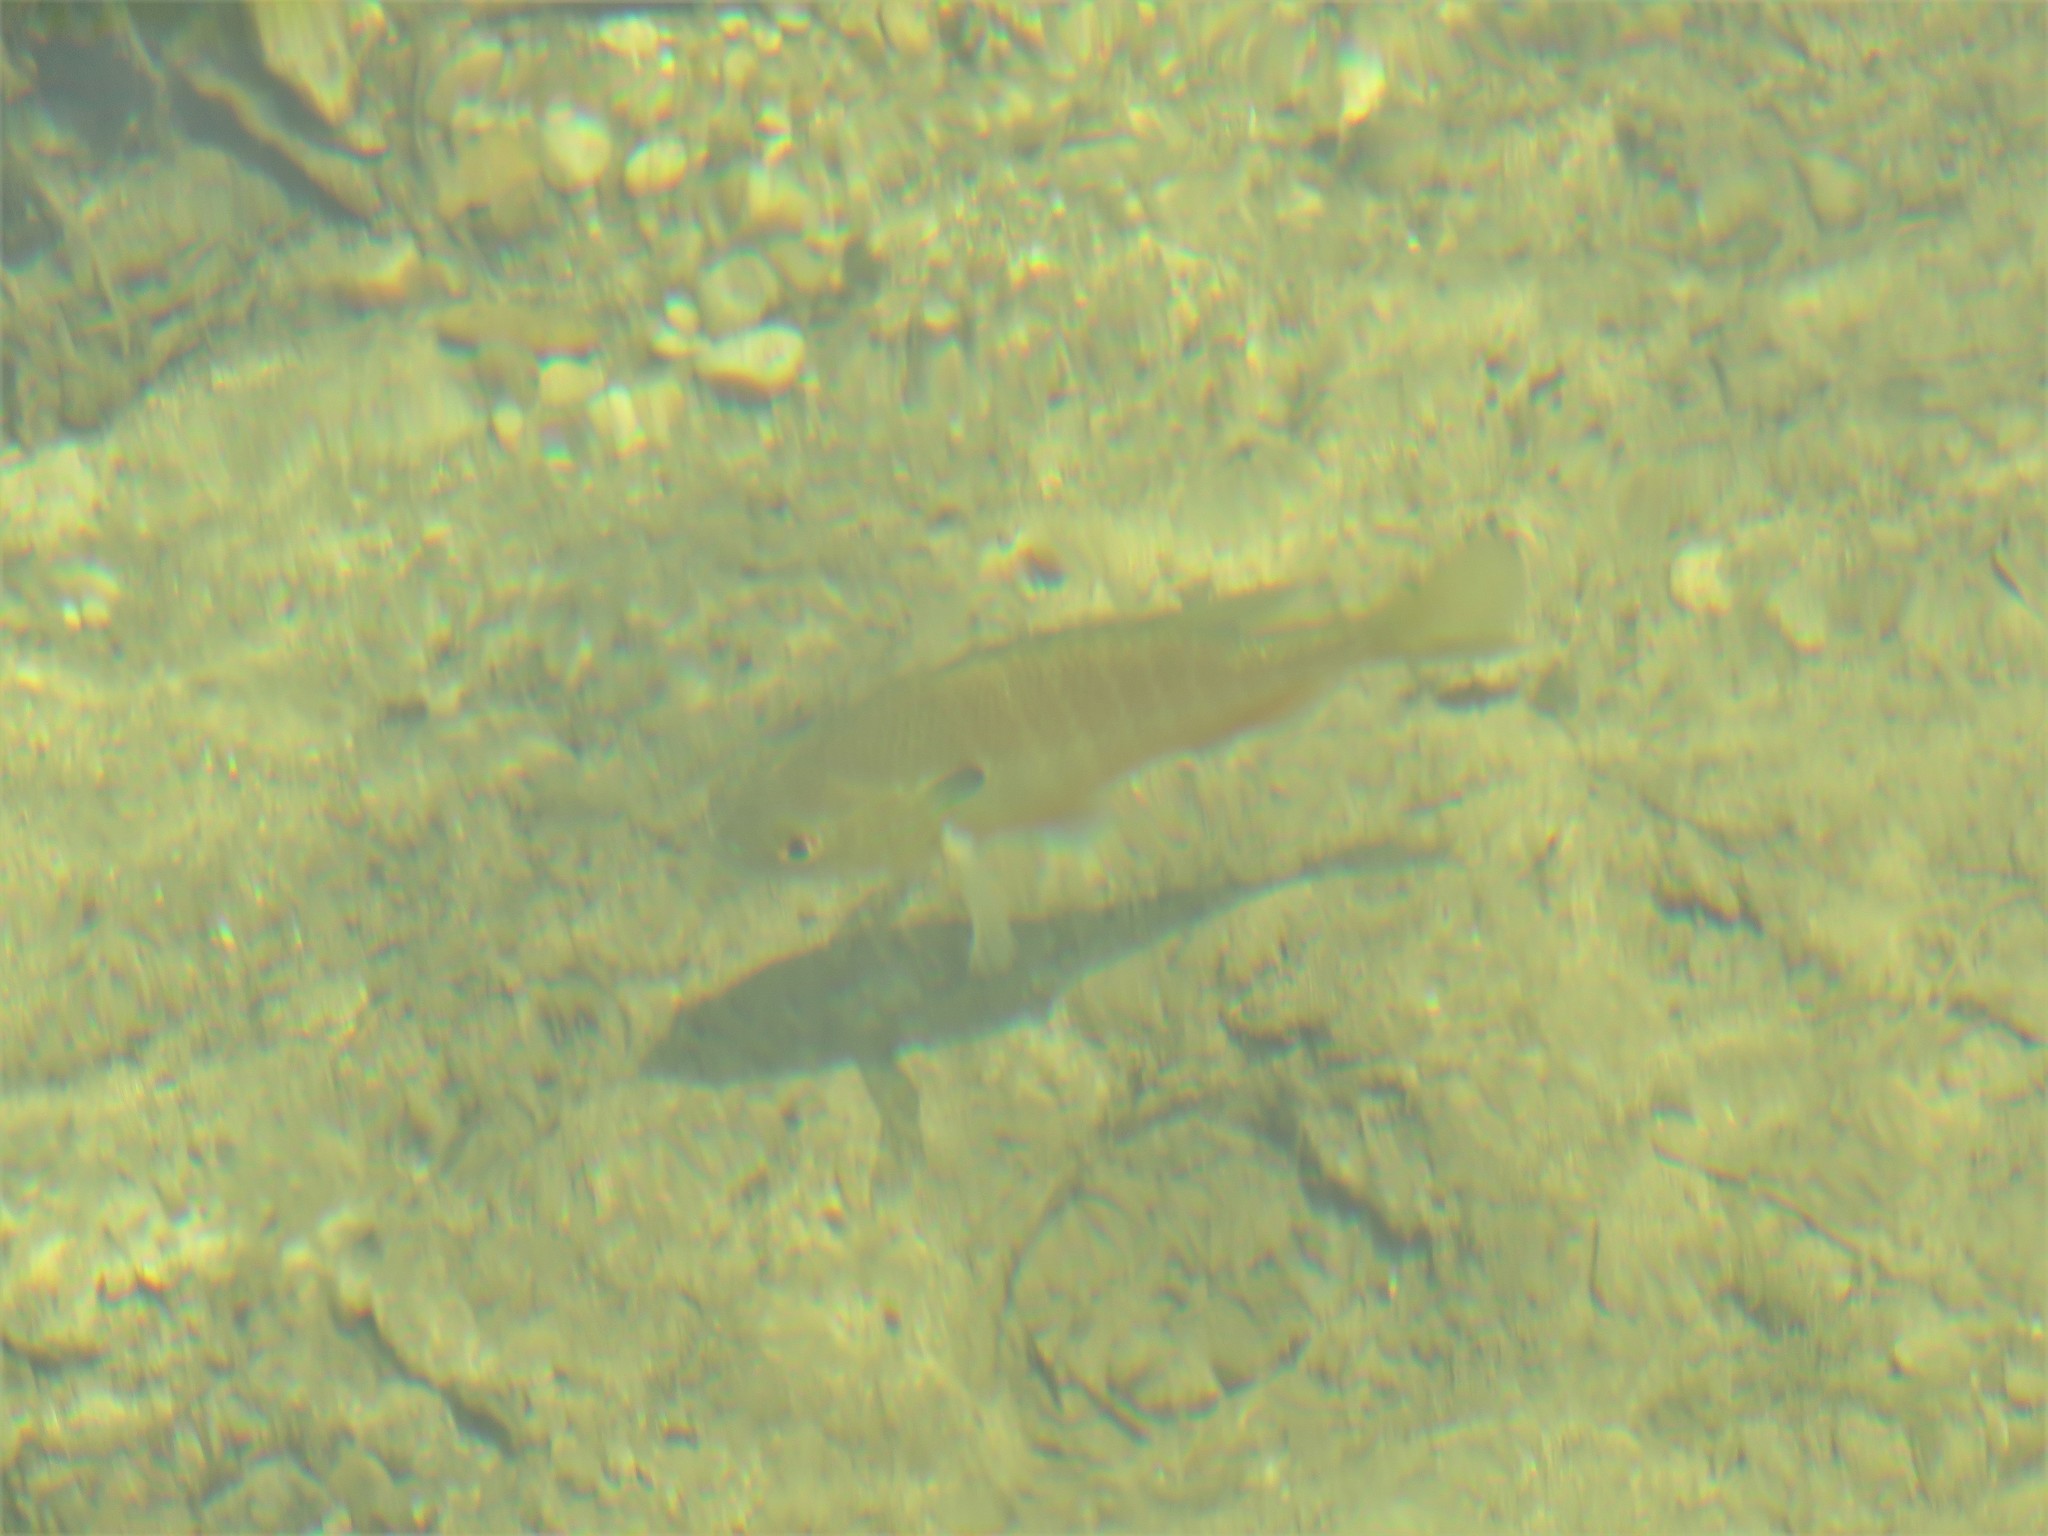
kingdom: Animalia
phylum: Chordata
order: Perciformes
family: Centrarchidae
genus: Lepomis
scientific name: Lepomis megalotis
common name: Longear sunfish
